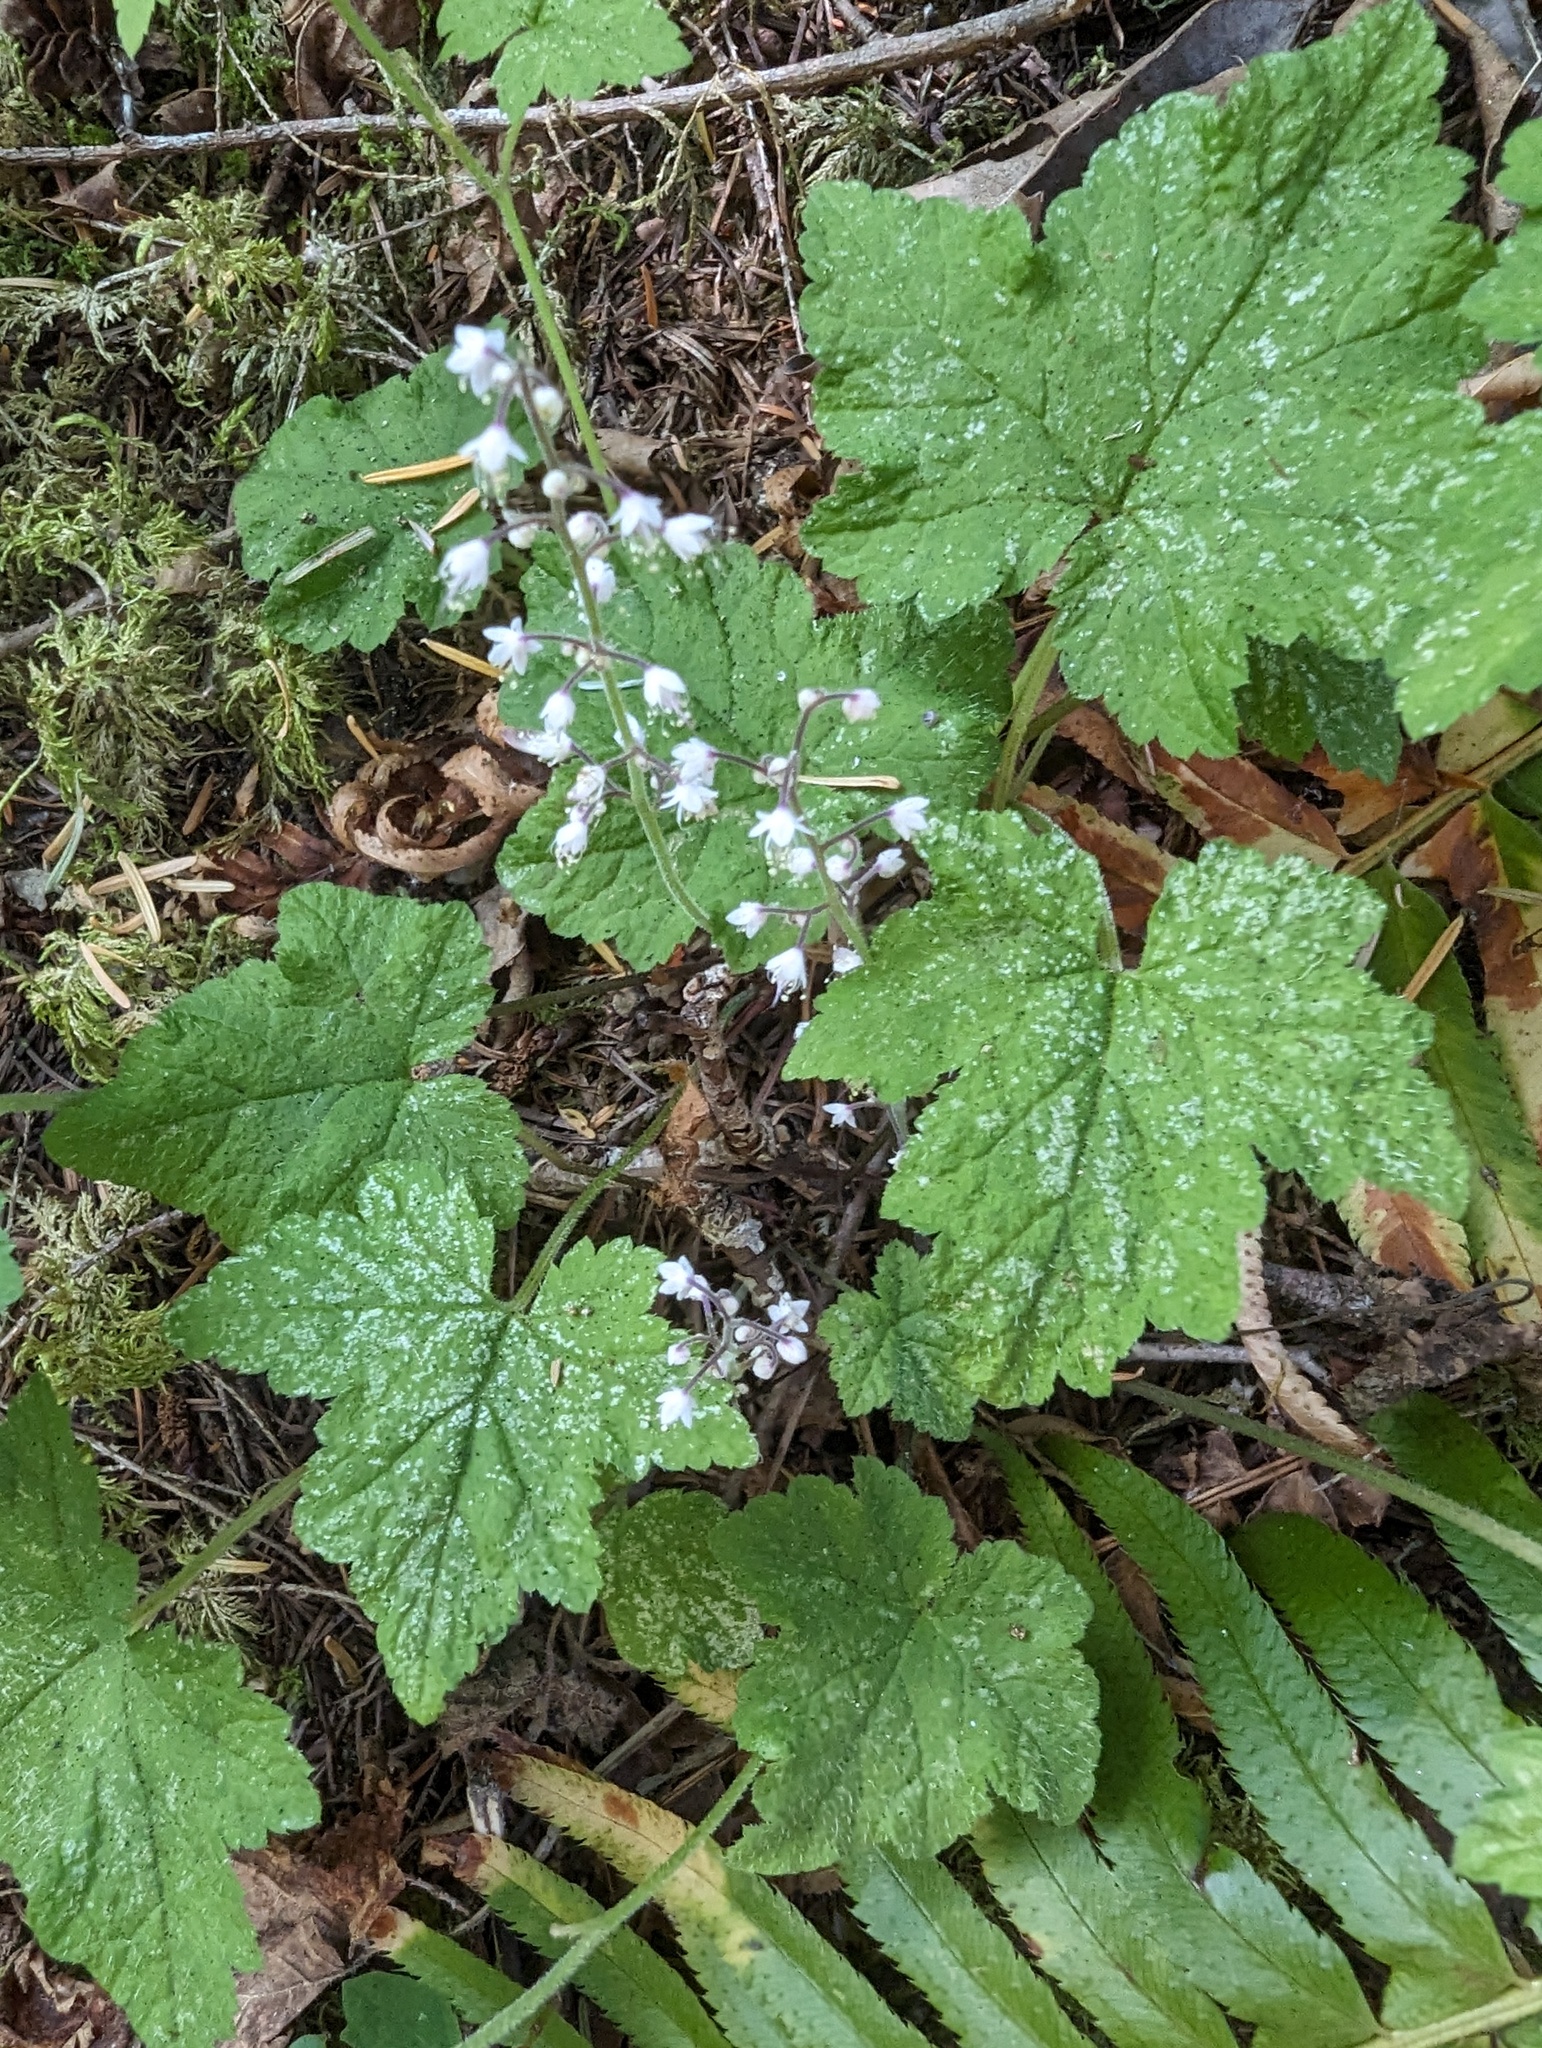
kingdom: Plantae
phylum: Tracheophyta
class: Magnoliopsida
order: Saxifragales
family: Saxifragaceae
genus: Tiarella
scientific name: Tiarella trifoliata
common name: Sugar-scoop
